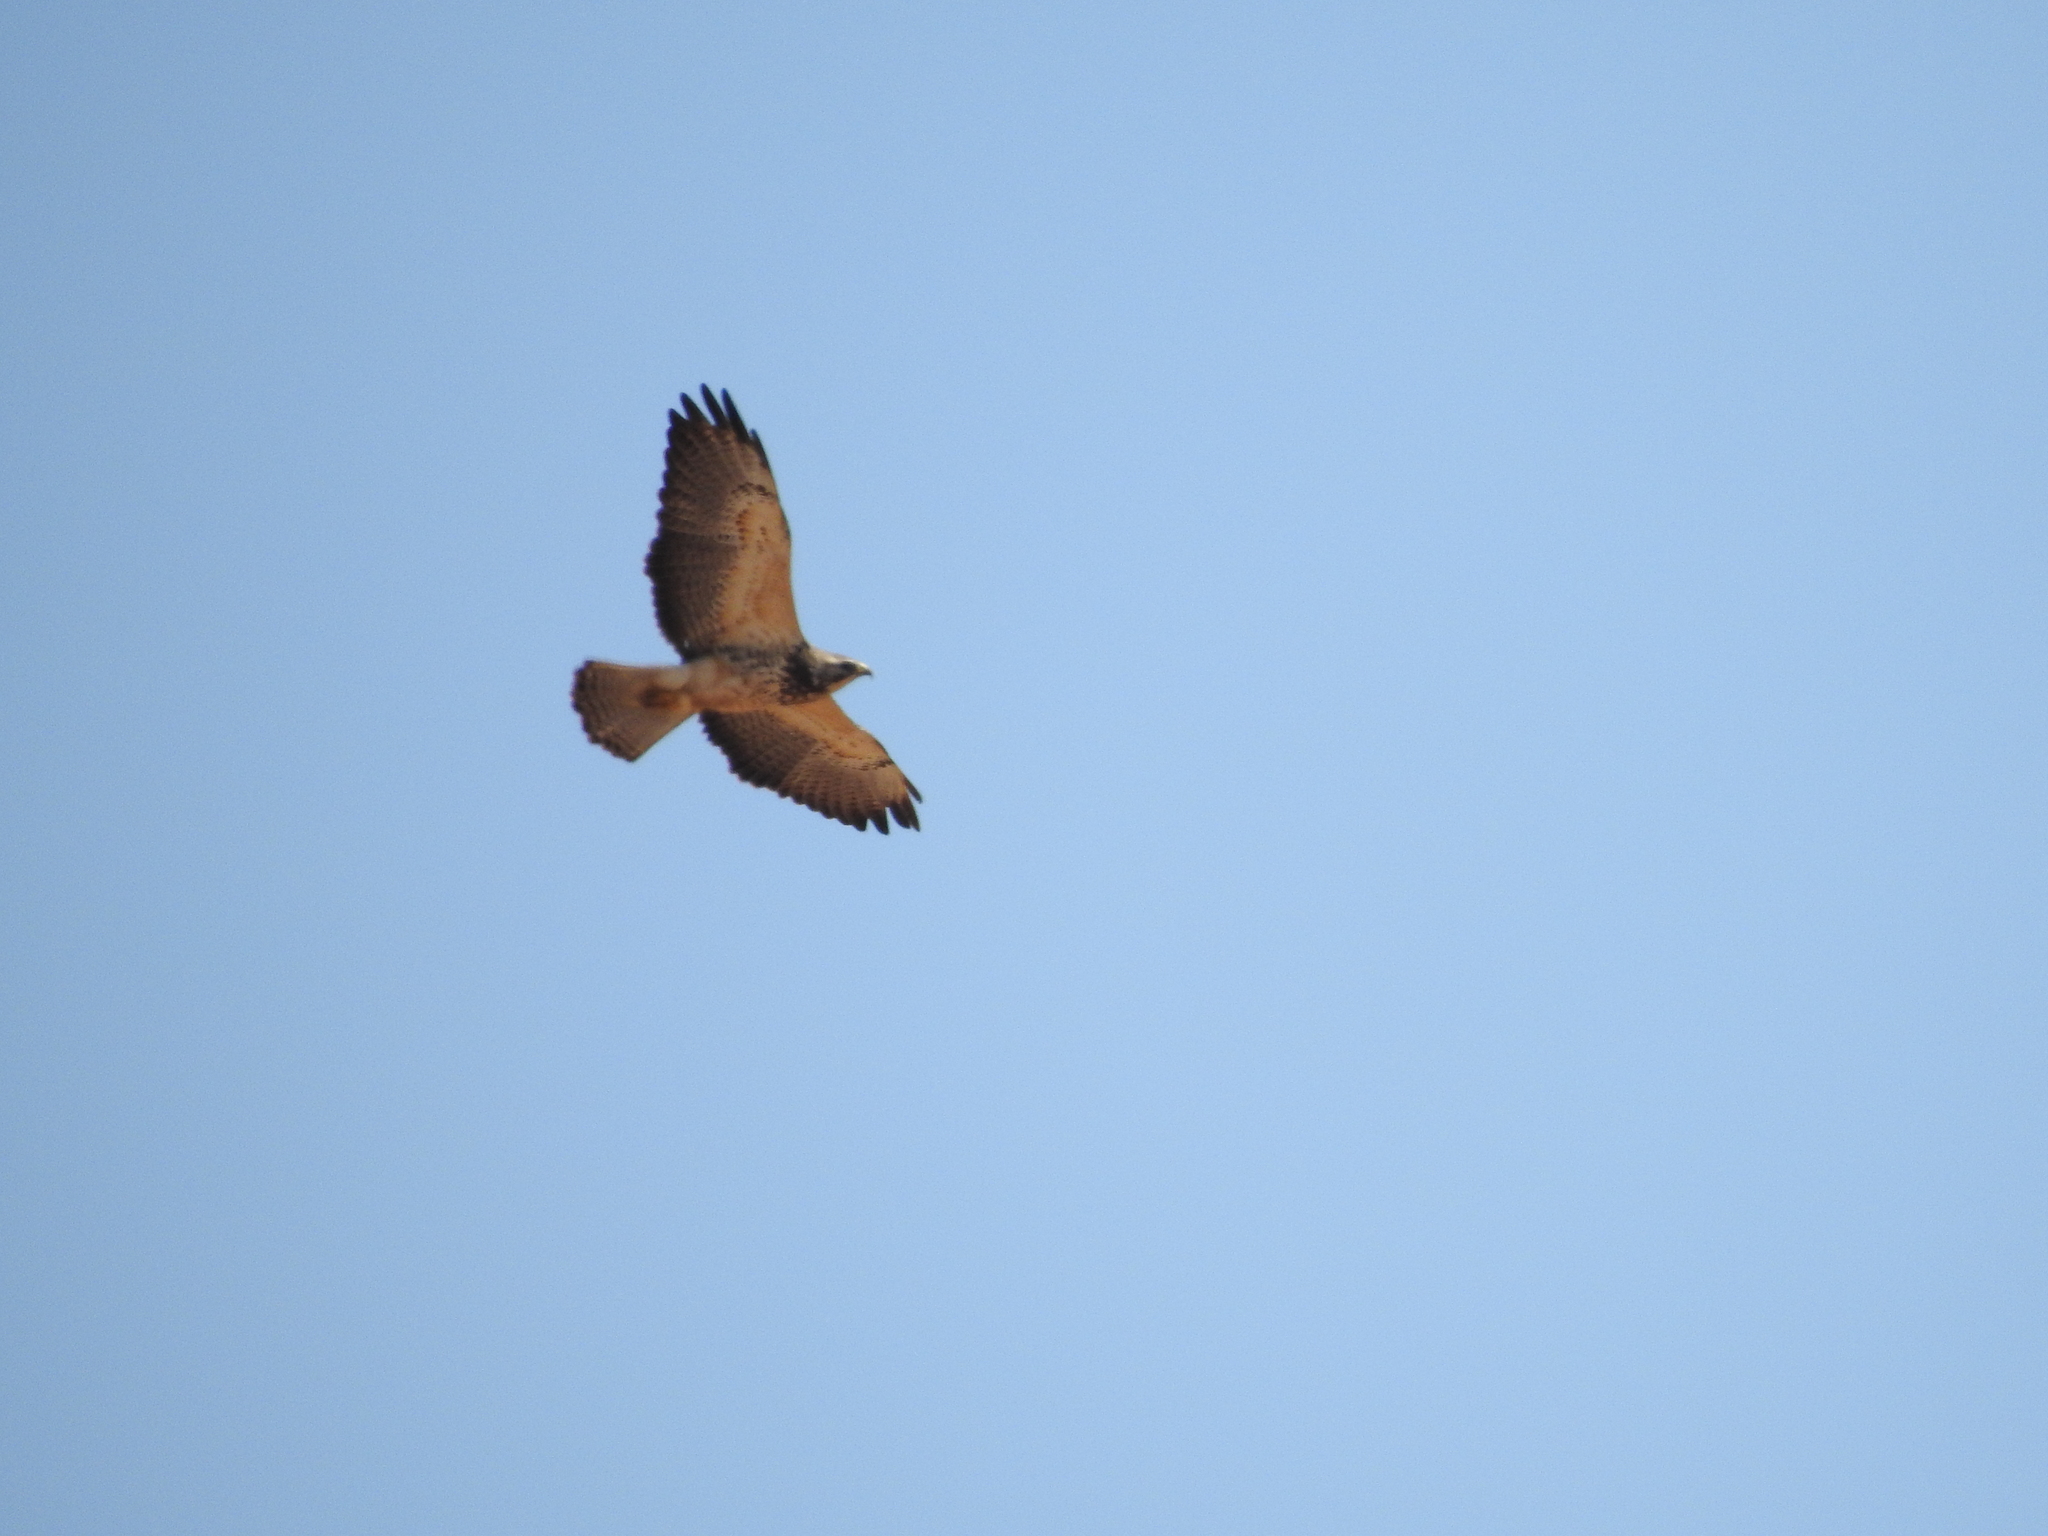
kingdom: Animalia
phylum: Chordata
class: Aves
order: Accipitriformes
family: Accipitridae
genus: Buteo
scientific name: Buteo swainsoni
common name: Swainson's hawk
